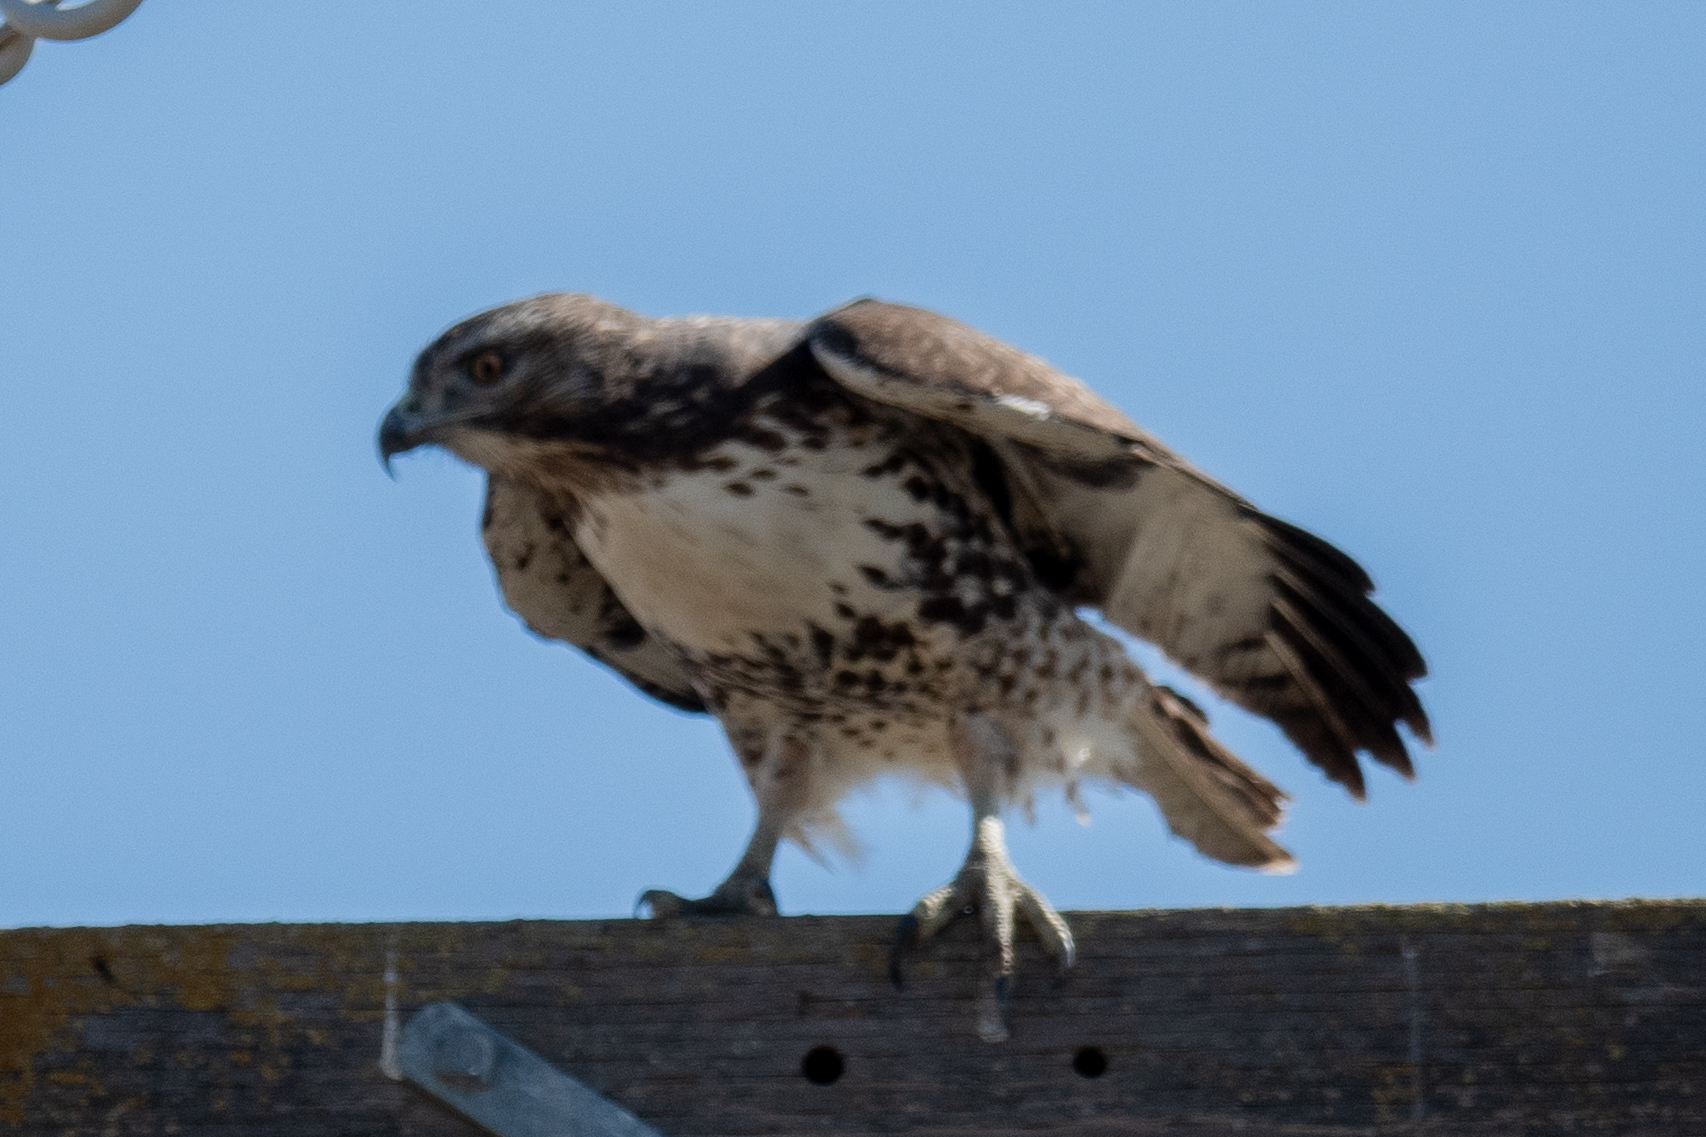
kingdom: Animalia
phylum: Chordata
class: Aves
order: Accipitriformes
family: Accipitridae
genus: Buteo
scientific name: Buteo jamaicensis
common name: Red-tailed hawk
